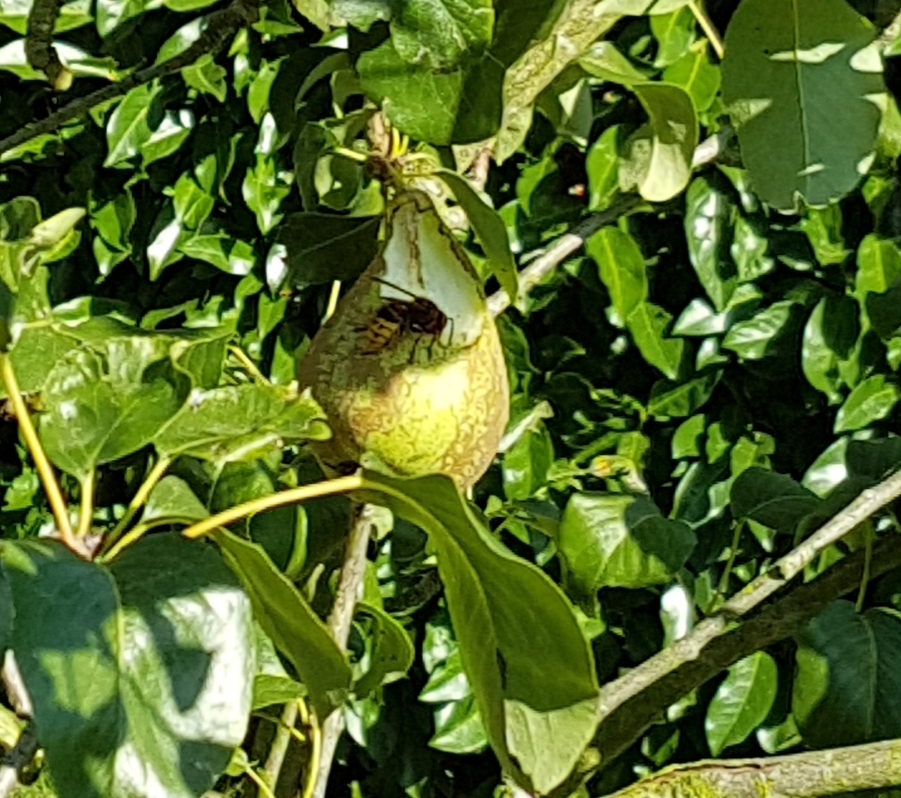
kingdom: Animalia
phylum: Arthropoda
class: Insecta
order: Hymenoptera
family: Vespidae
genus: Vespa
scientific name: Vespa crabro
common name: Hornet
